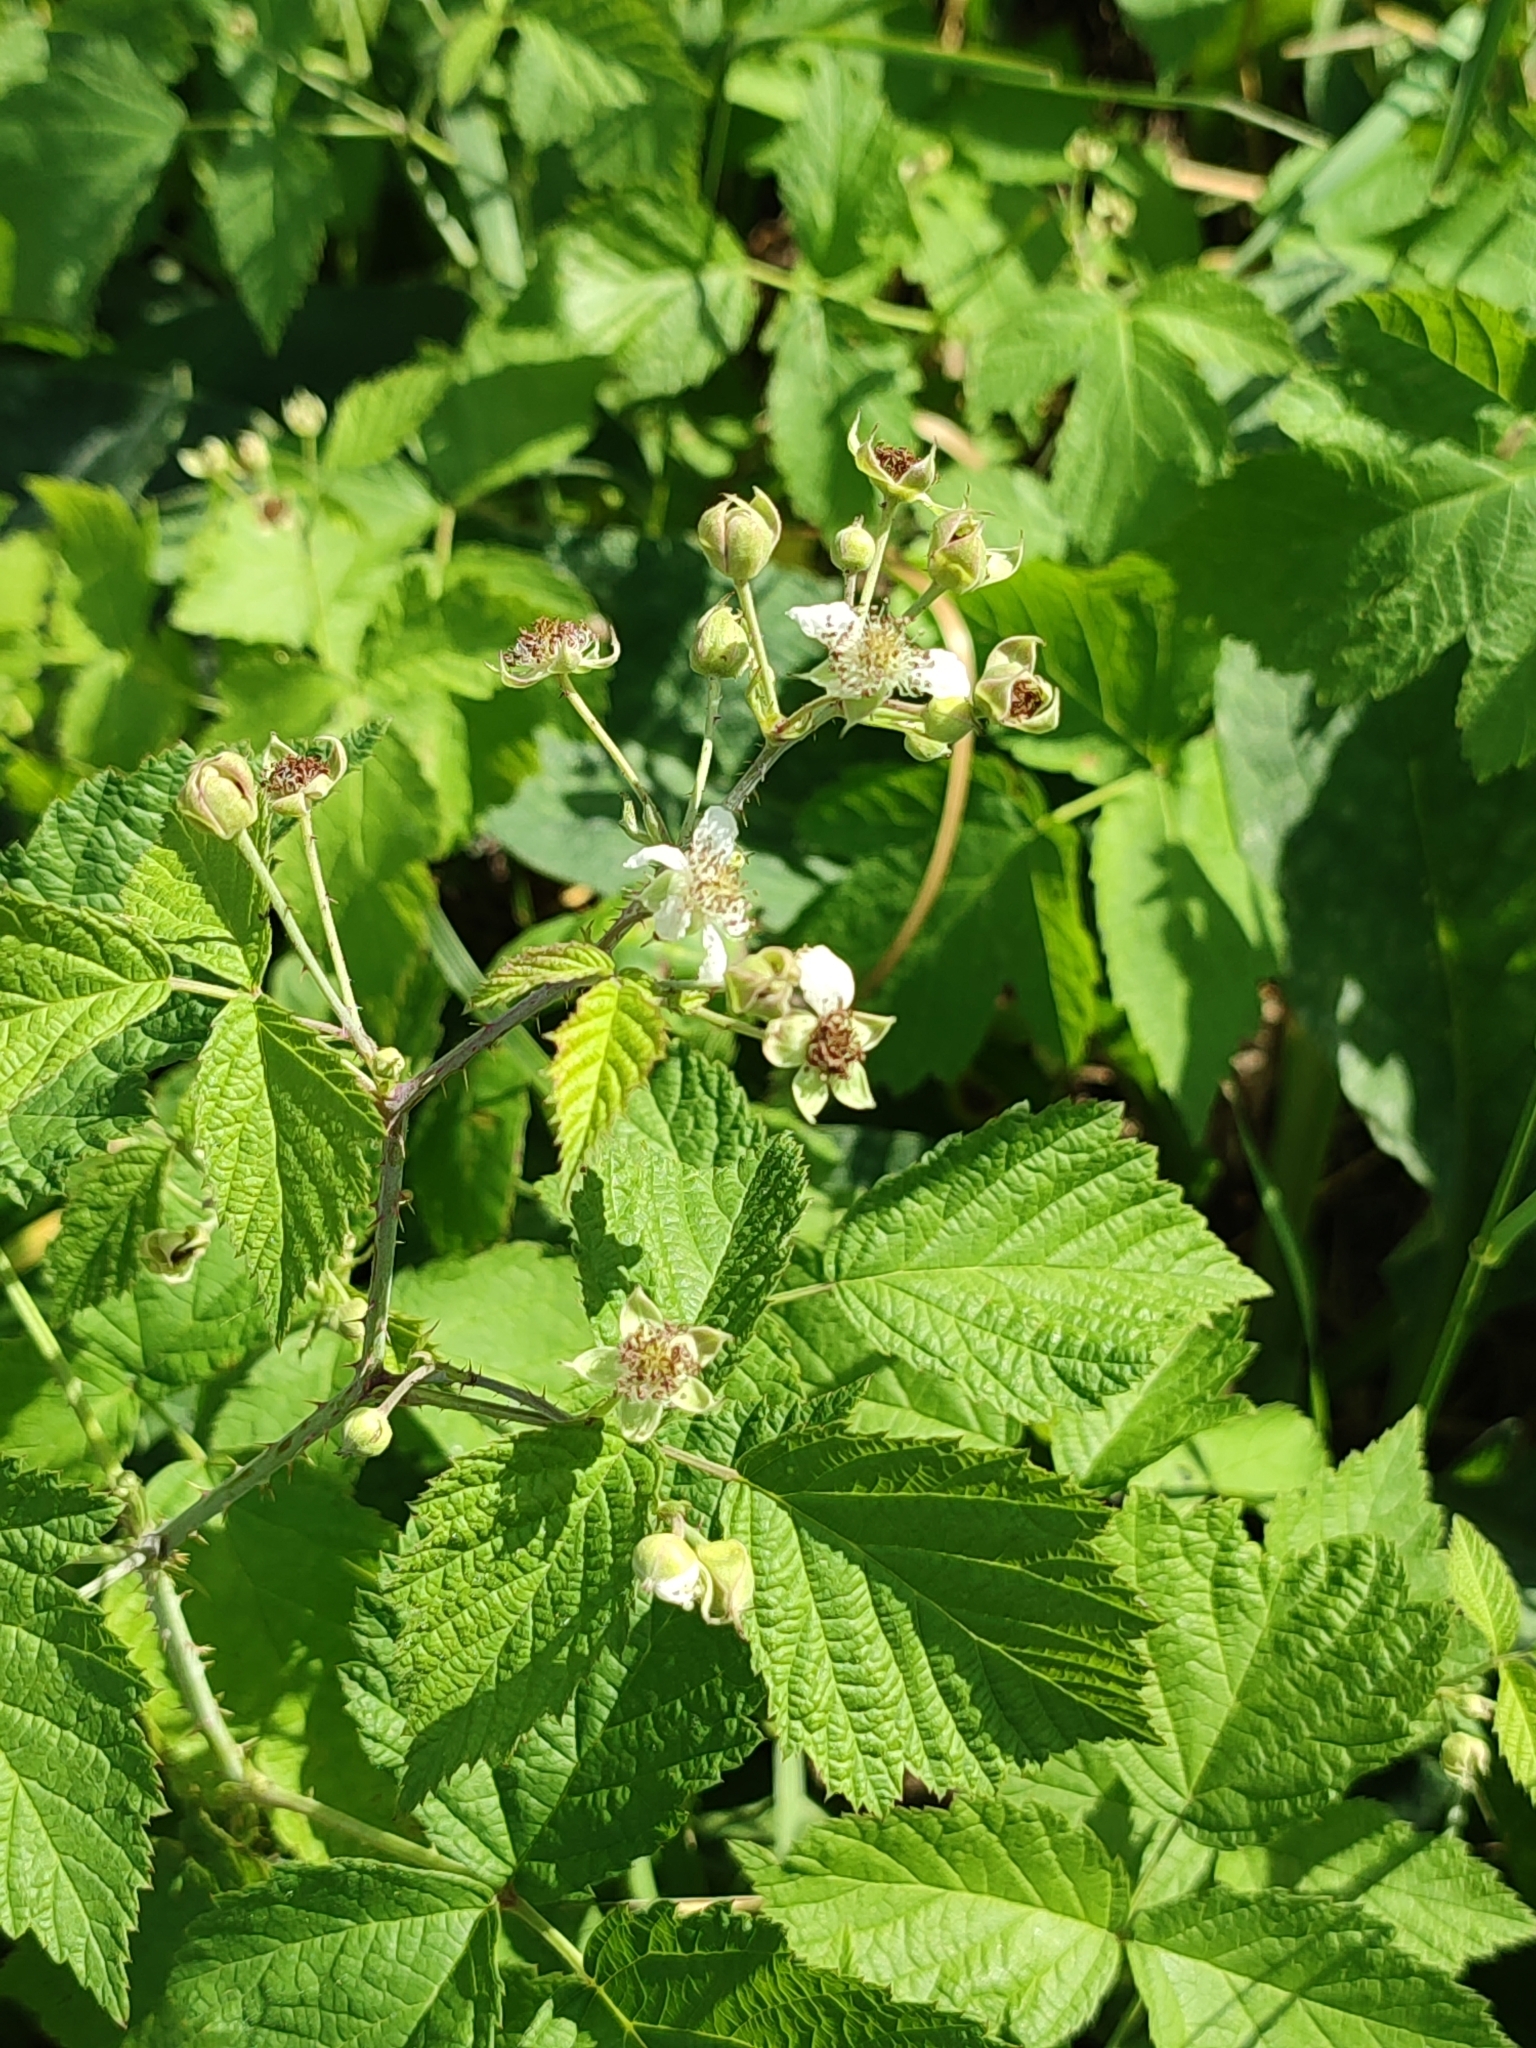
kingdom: Plantae
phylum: Tracheophyta
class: Magnoliopsida
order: Rosales
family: Rosaceae
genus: Rubus
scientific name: Rubus caesius
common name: Dewberry
